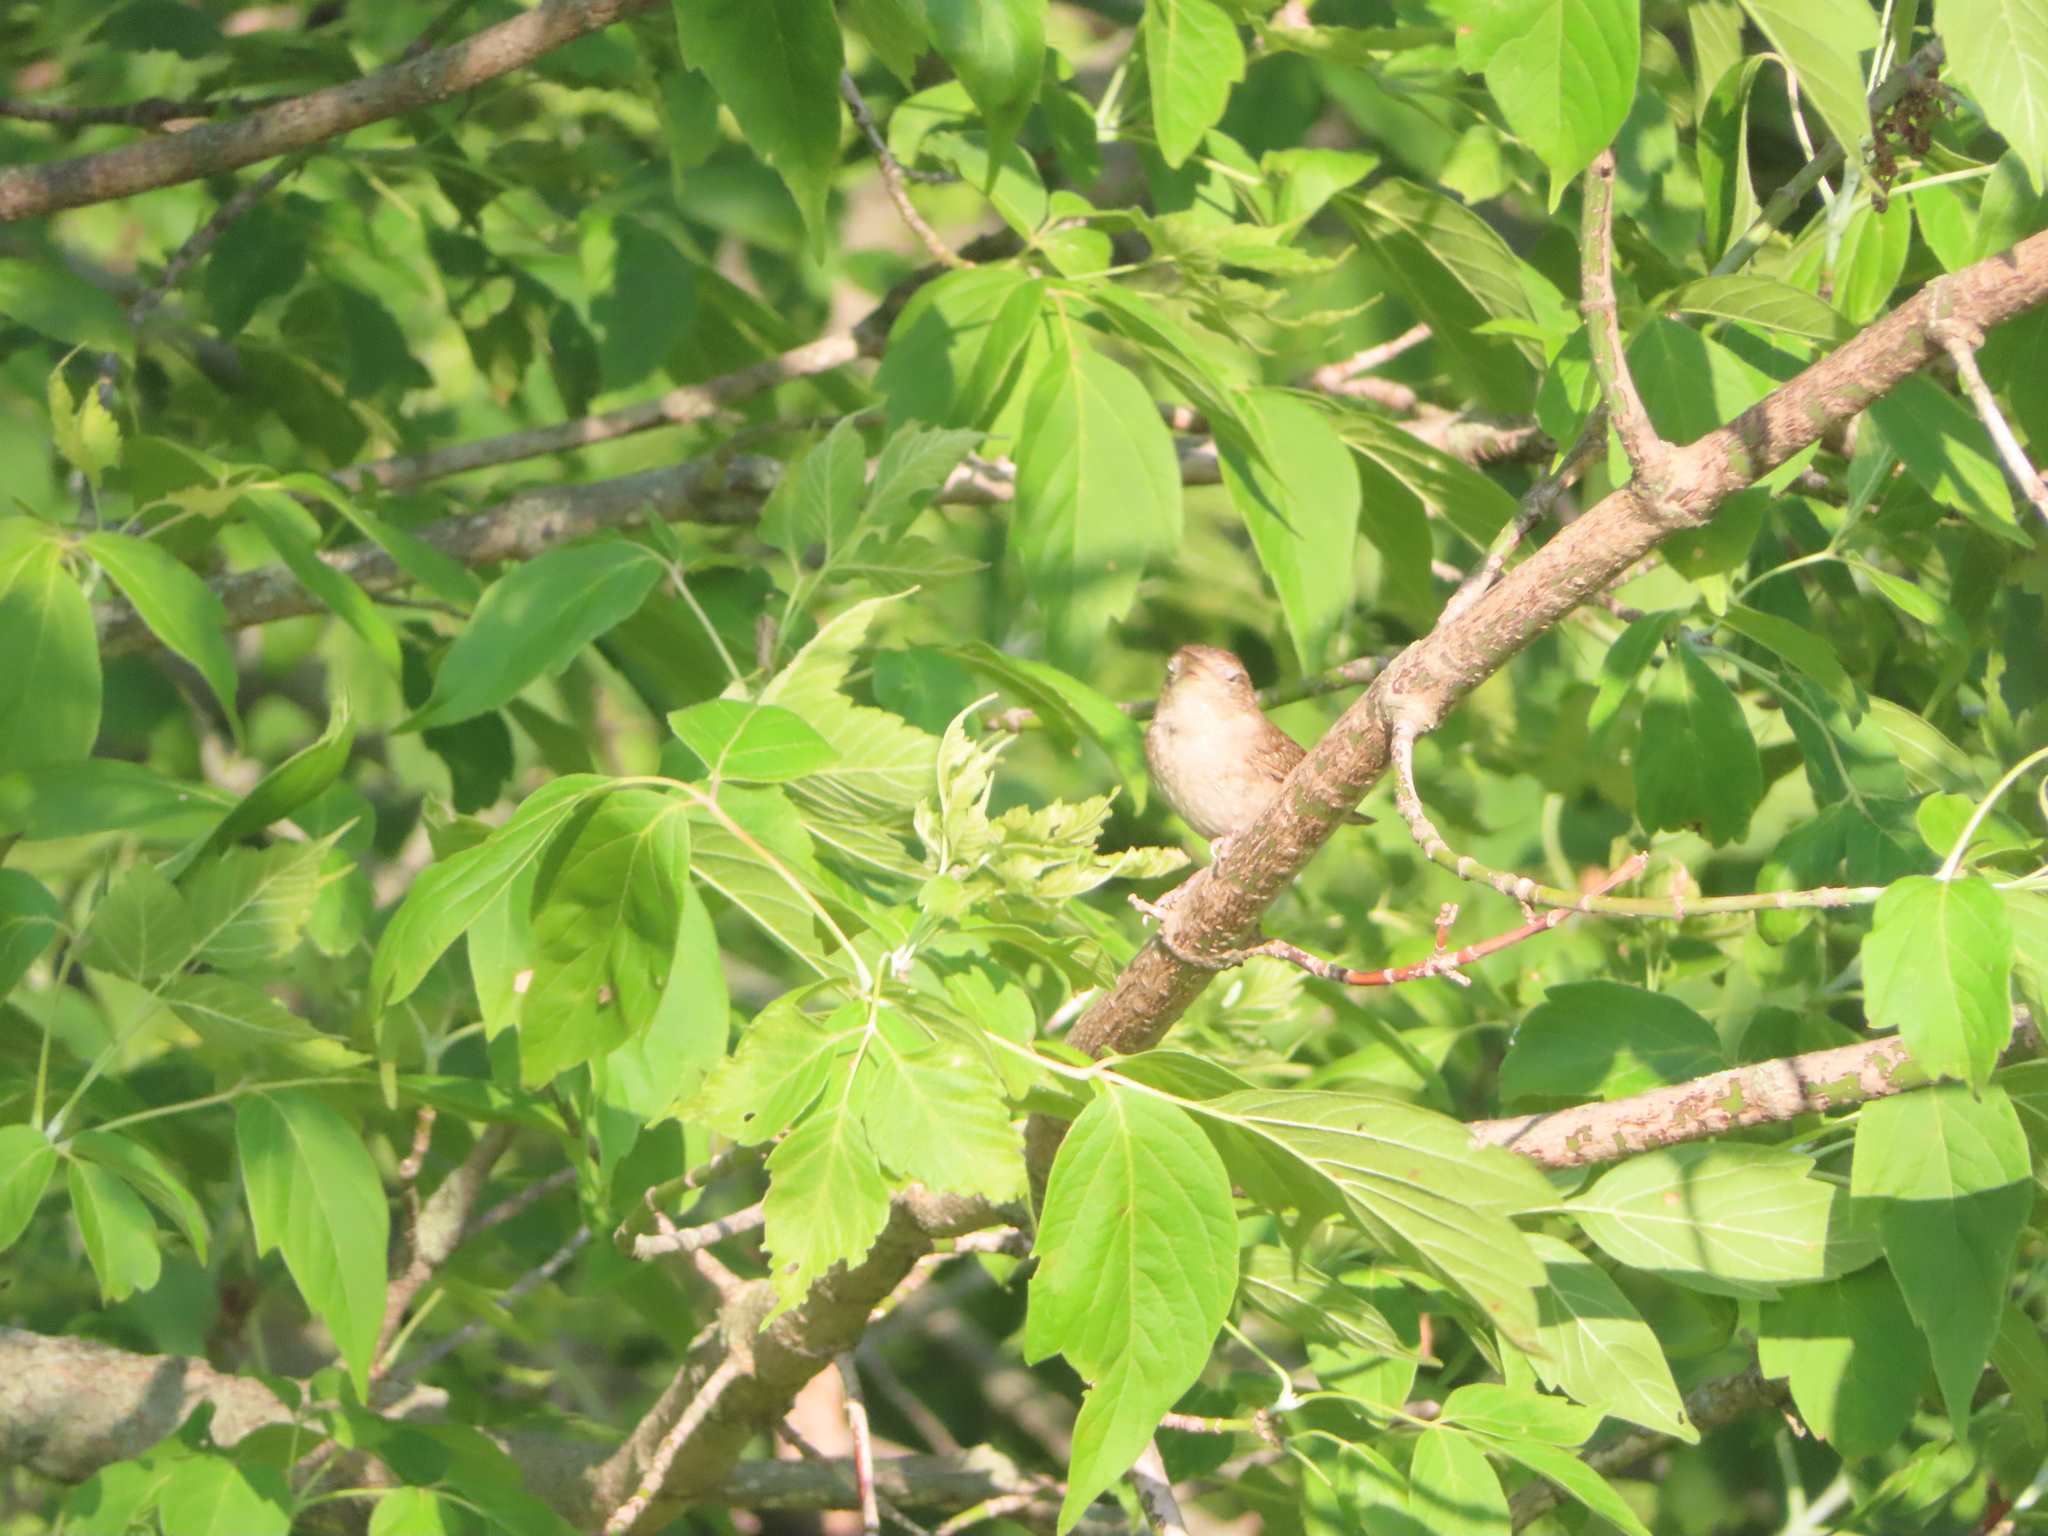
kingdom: Plantae
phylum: Tracheophyta
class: Magnoliopsida
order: Sapindales
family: Sapindaceae
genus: Acer
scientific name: Acer negundo
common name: Ashleaf maple
